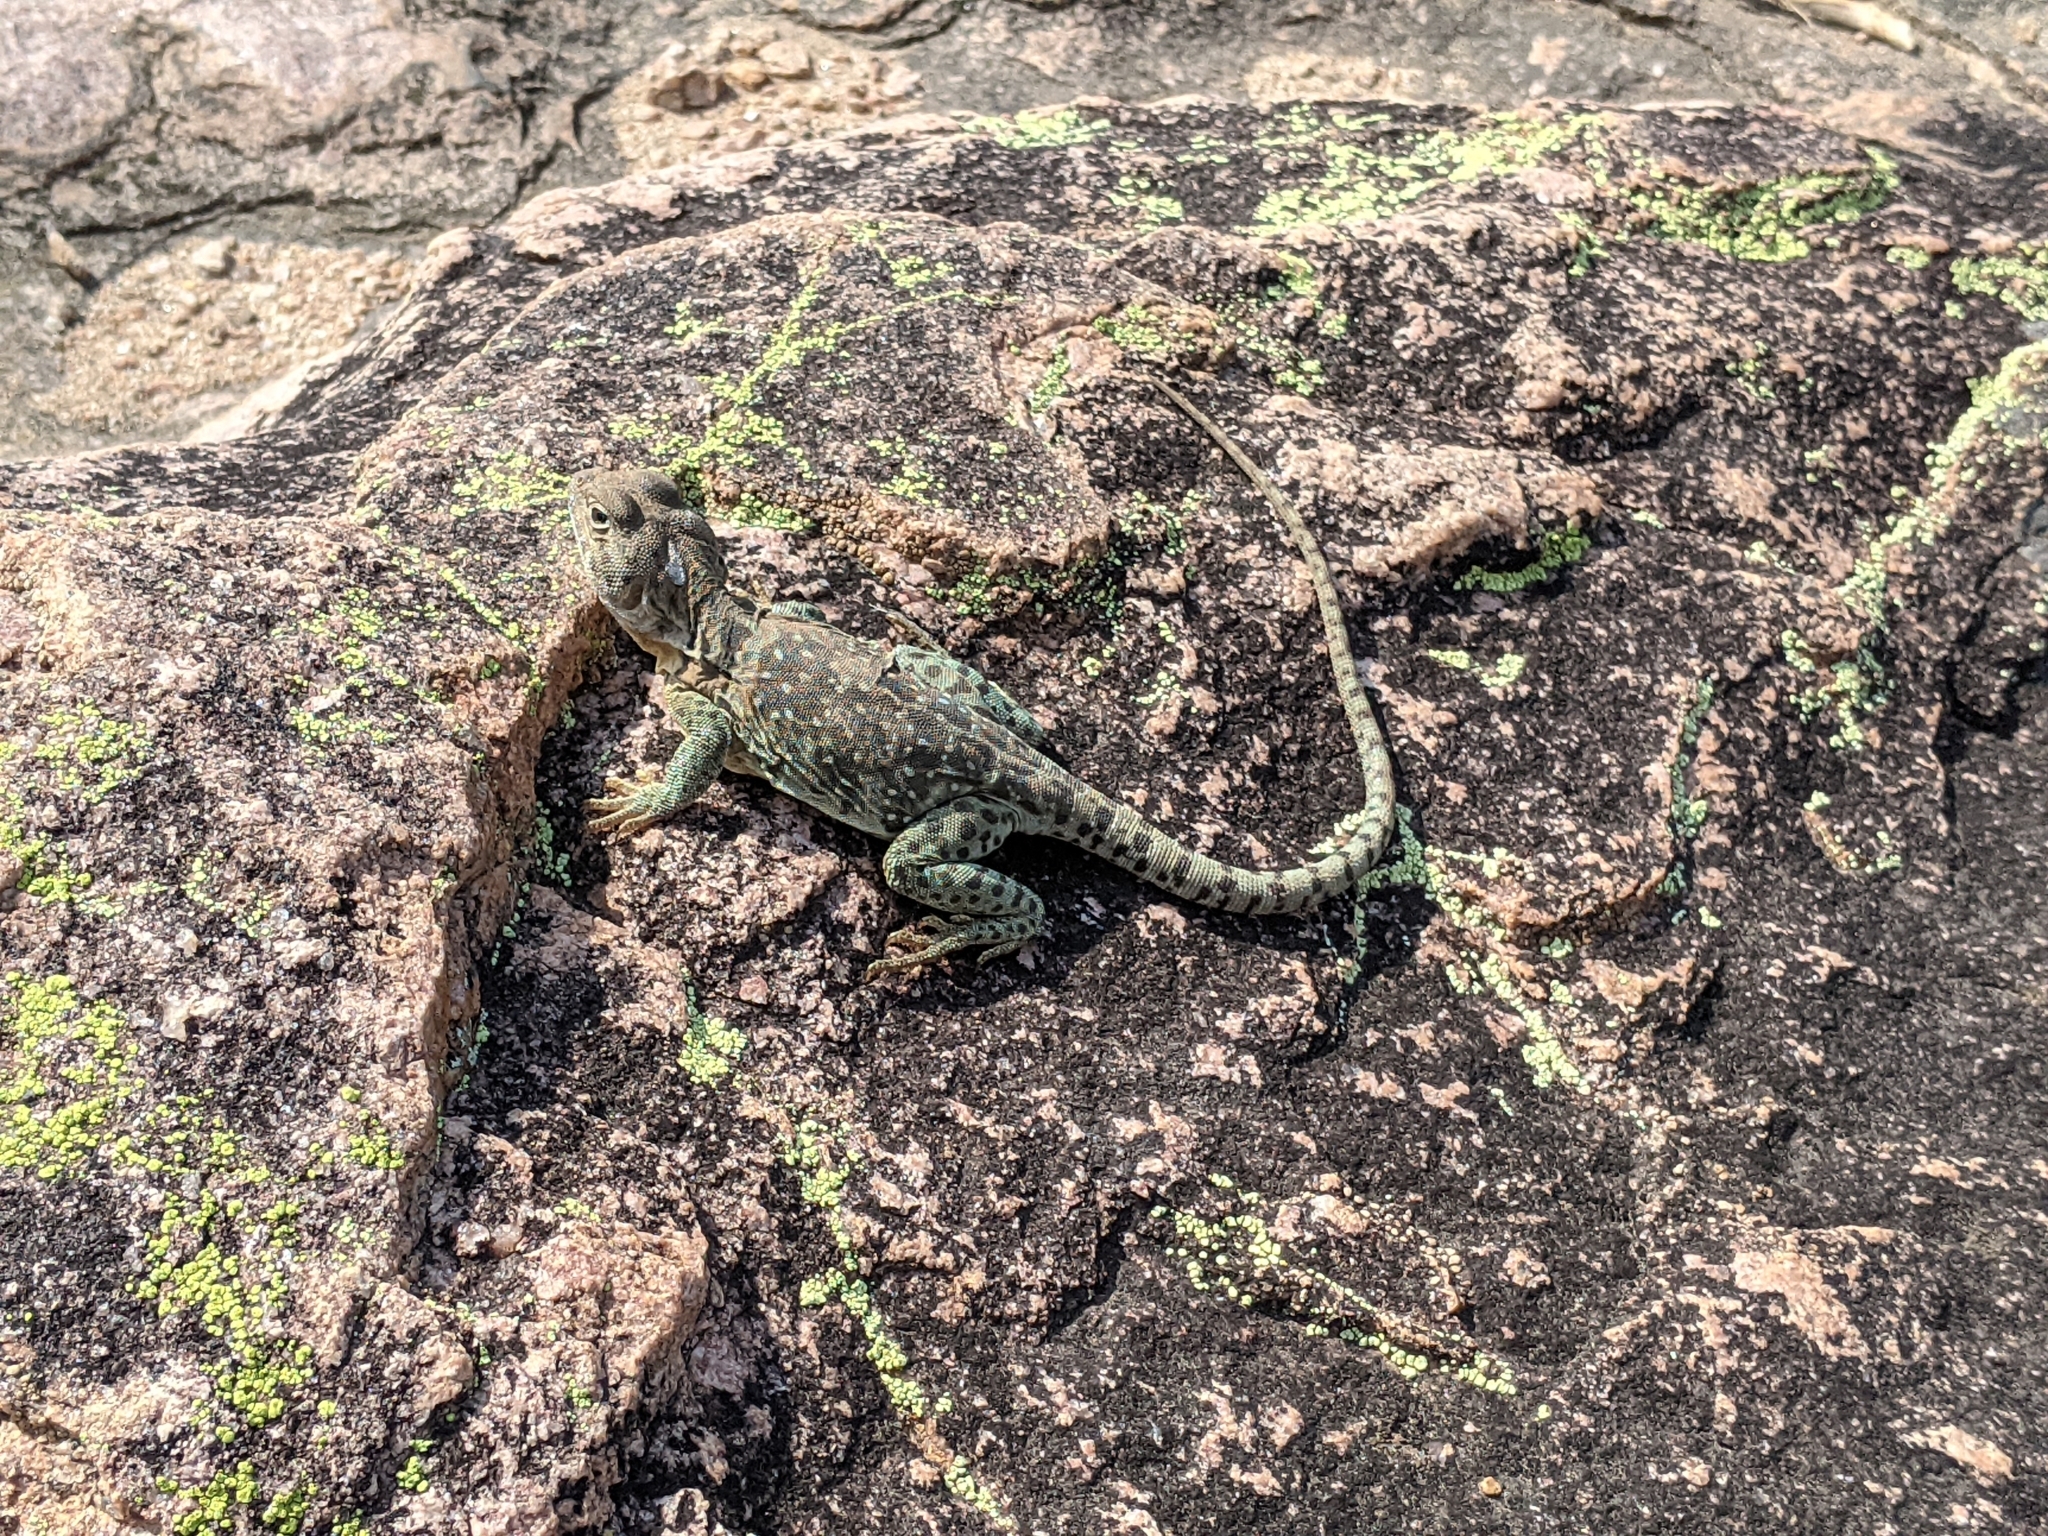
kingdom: Animalia
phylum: Chordata
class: Squamata
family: Crotaphytidae
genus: Crotaphytus
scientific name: Crotaphytus collaris
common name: Collared lizard
